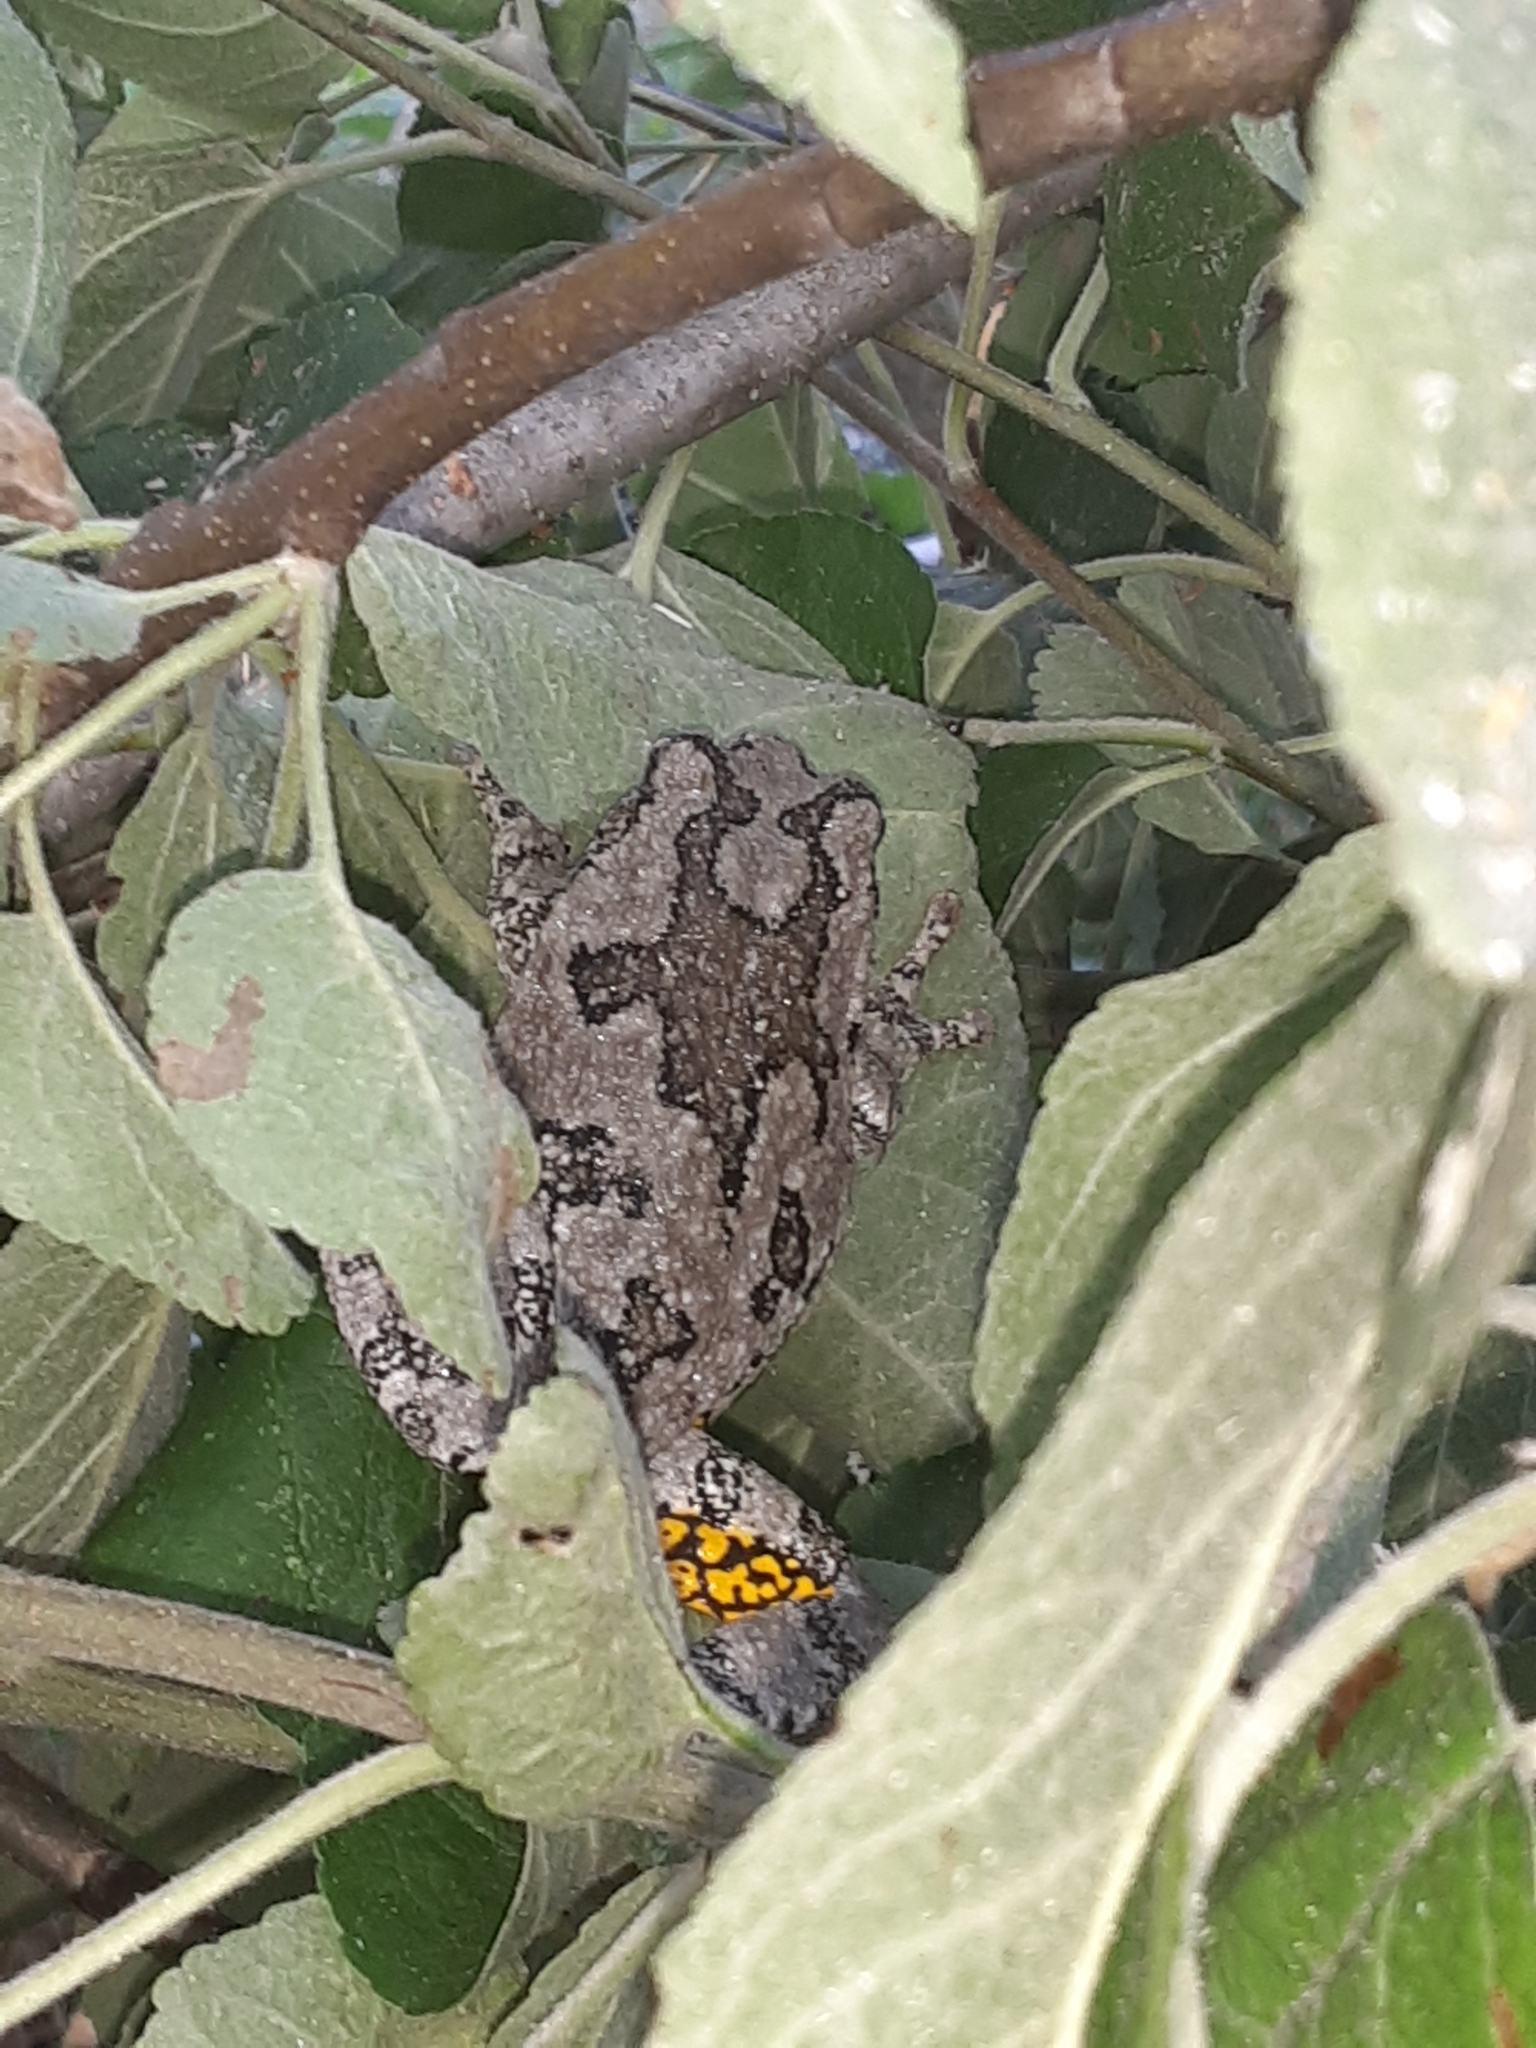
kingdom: Animalia
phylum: Chordata
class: Amphibia
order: Anura
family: Hylidae
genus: Dryophytes
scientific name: Dryophytes versicolor
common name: Gray treefrog
